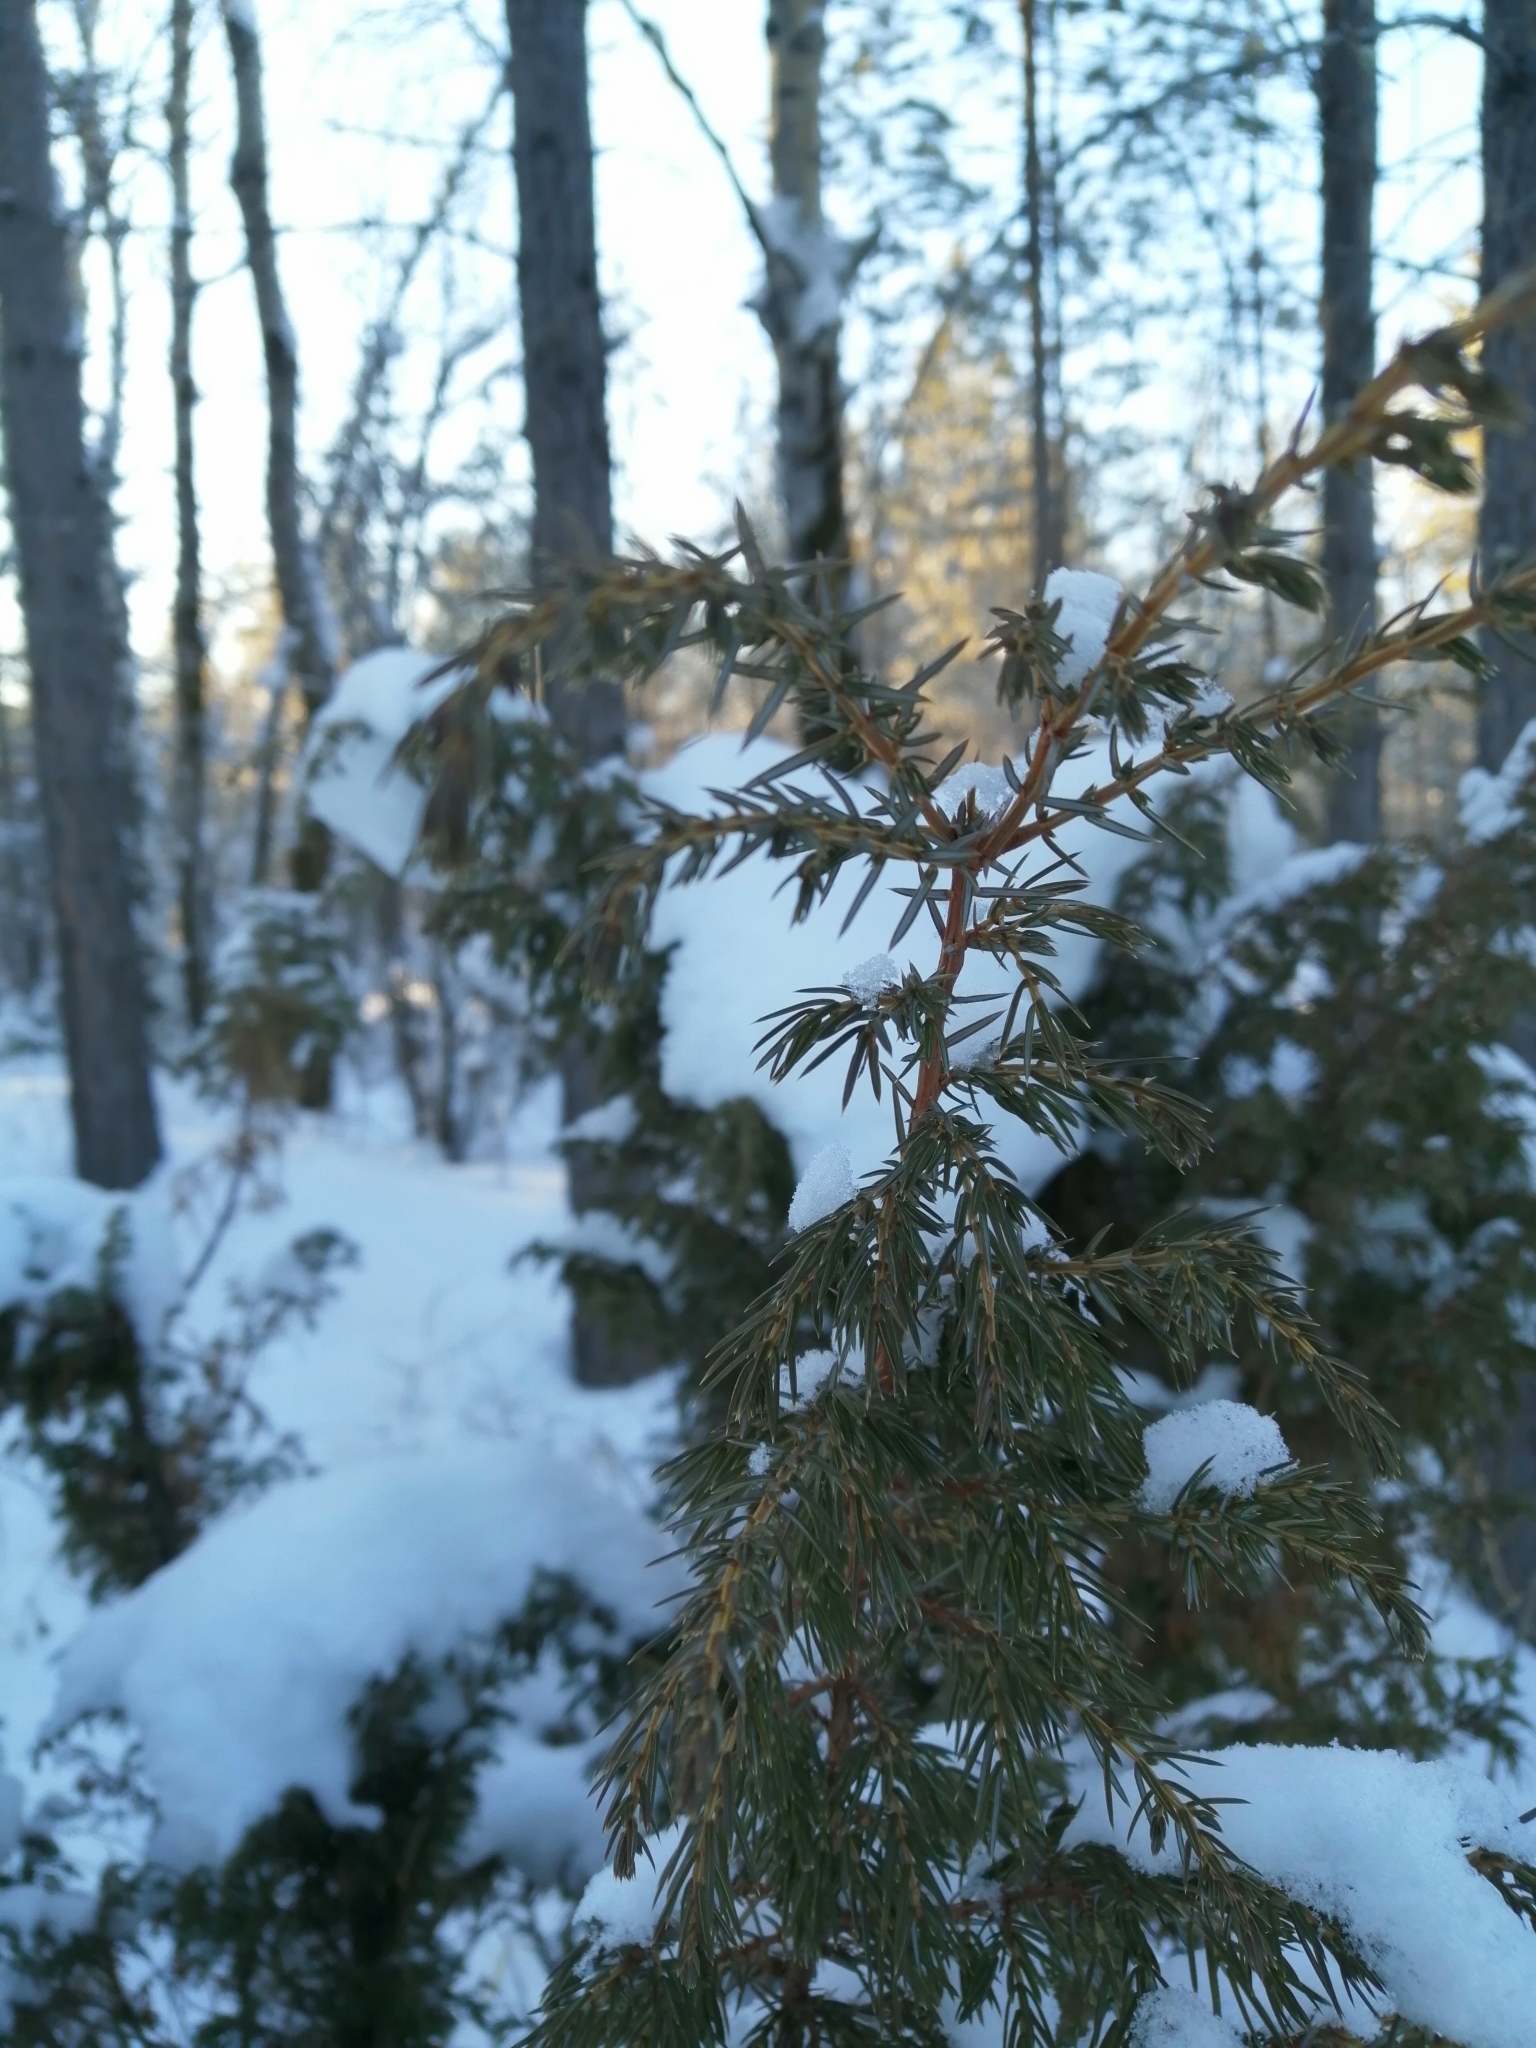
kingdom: Plantae
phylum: Tracheophyta
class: Pinopsida
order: Pinales
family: Cupressaceae
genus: Juniperus
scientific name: Juniperus communis
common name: Common juniper
